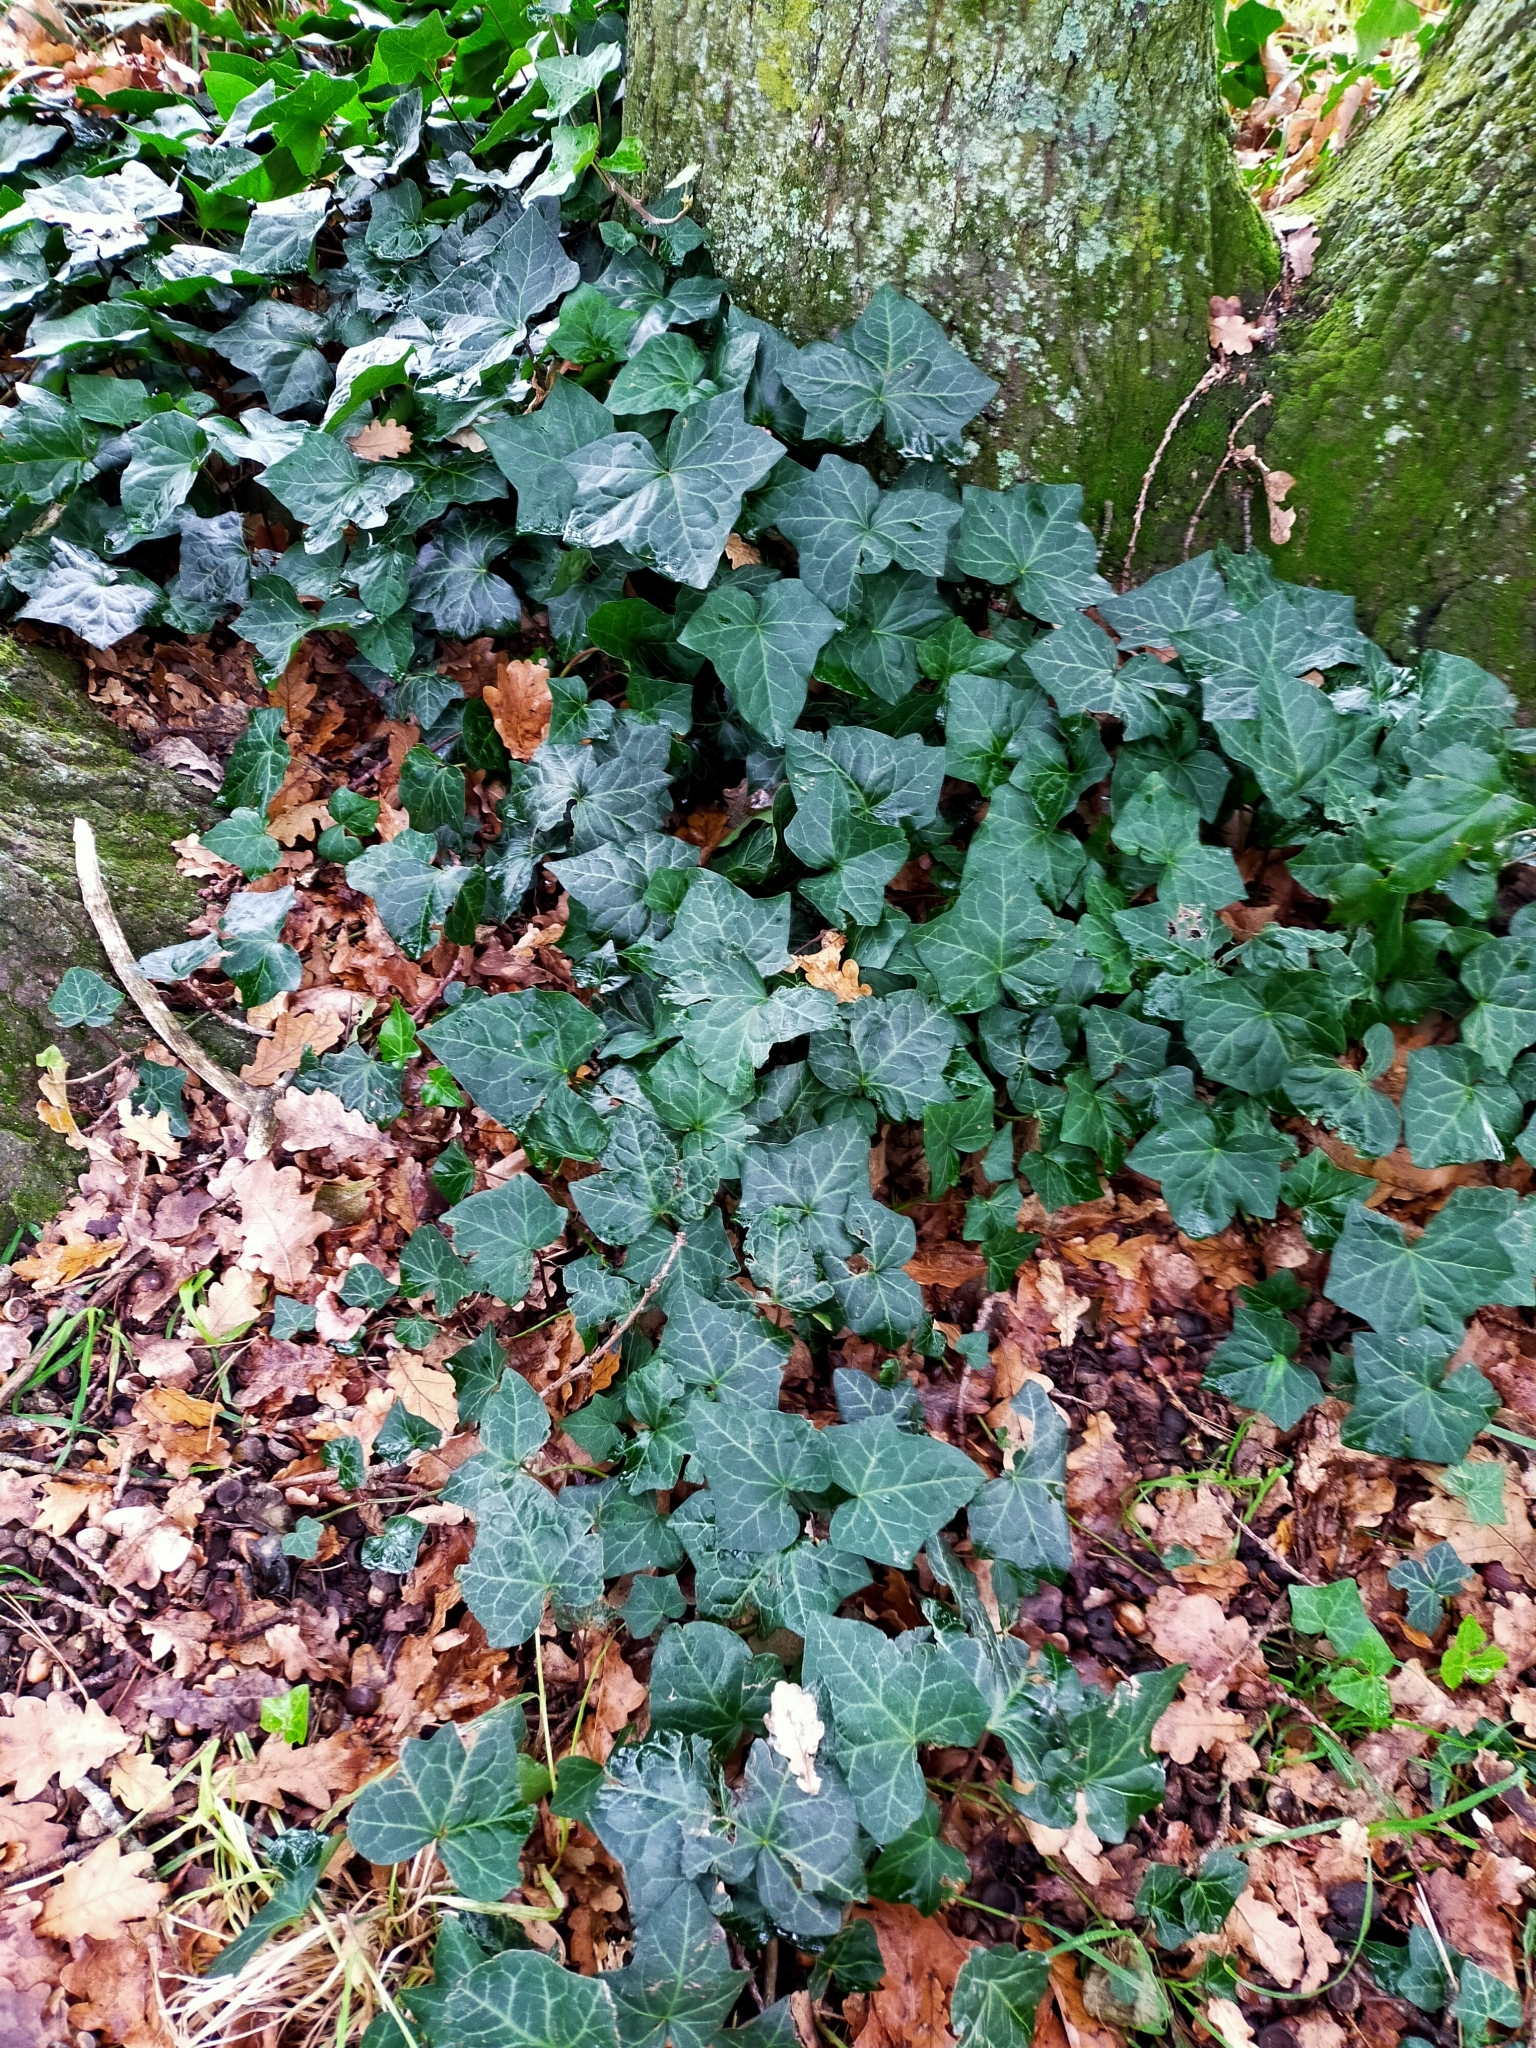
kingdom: Plantae
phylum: Tracheophyta
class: Magnoliopsida
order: Apiales
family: Araliaceae
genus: Hedera
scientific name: Hedera helix
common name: Ivy
